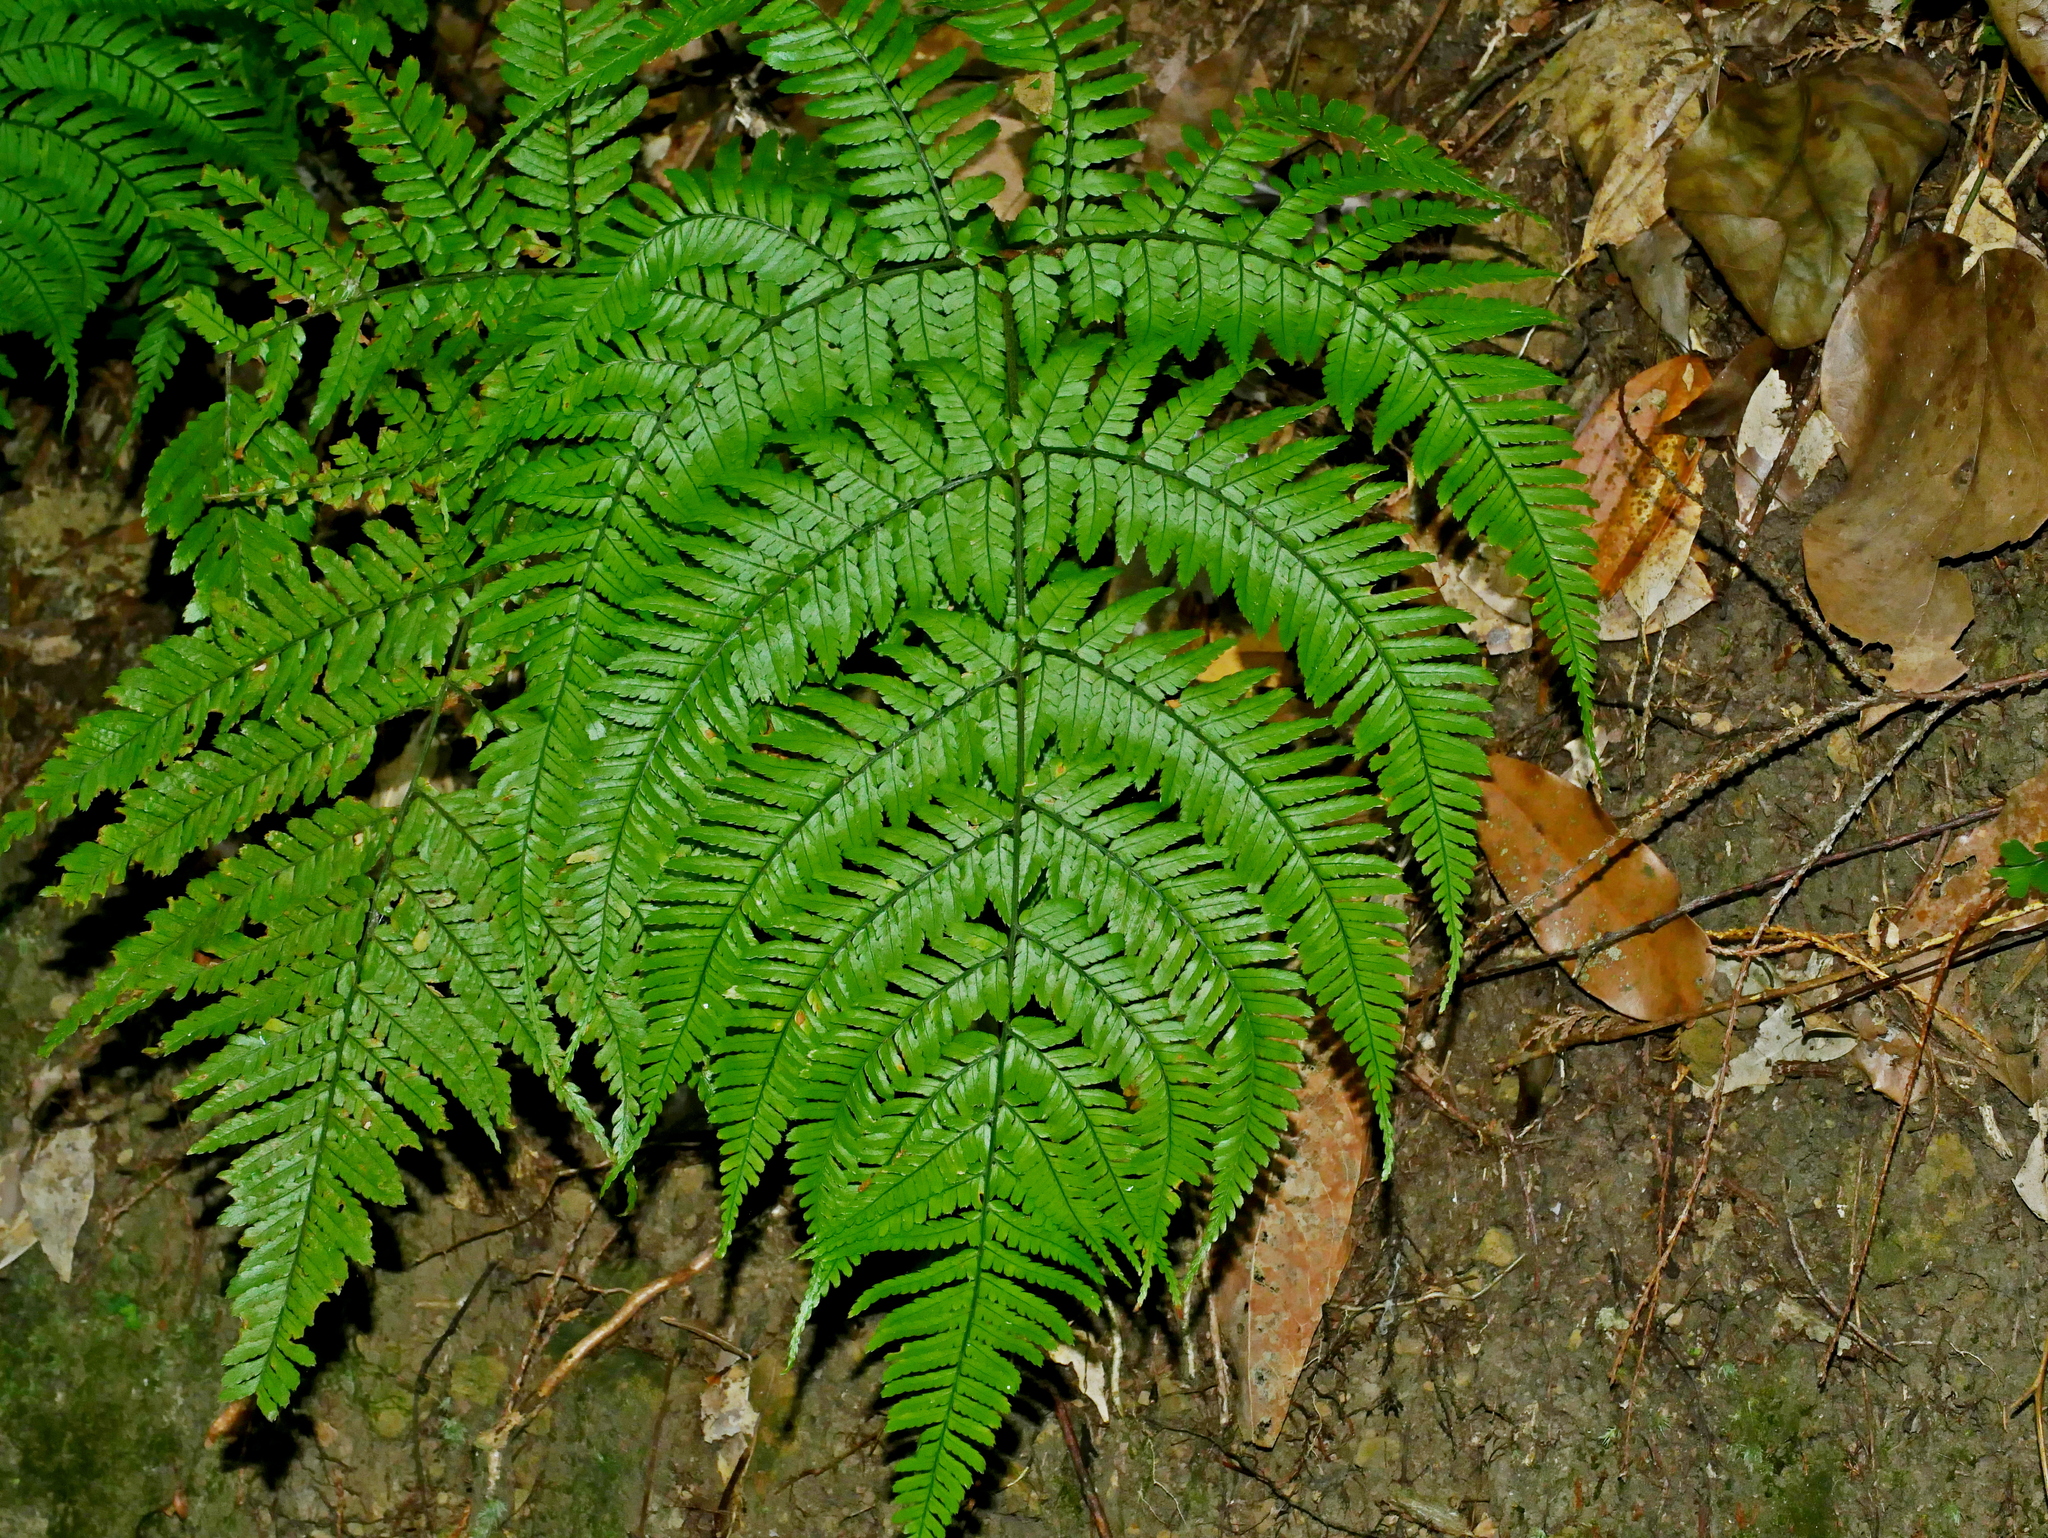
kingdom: Plantae
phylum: Tracheophyta
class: Polypodiopsida
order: Polypodiales
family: Dryopteridaceae
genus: Dryopteris
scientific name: Dryopteris formosana
